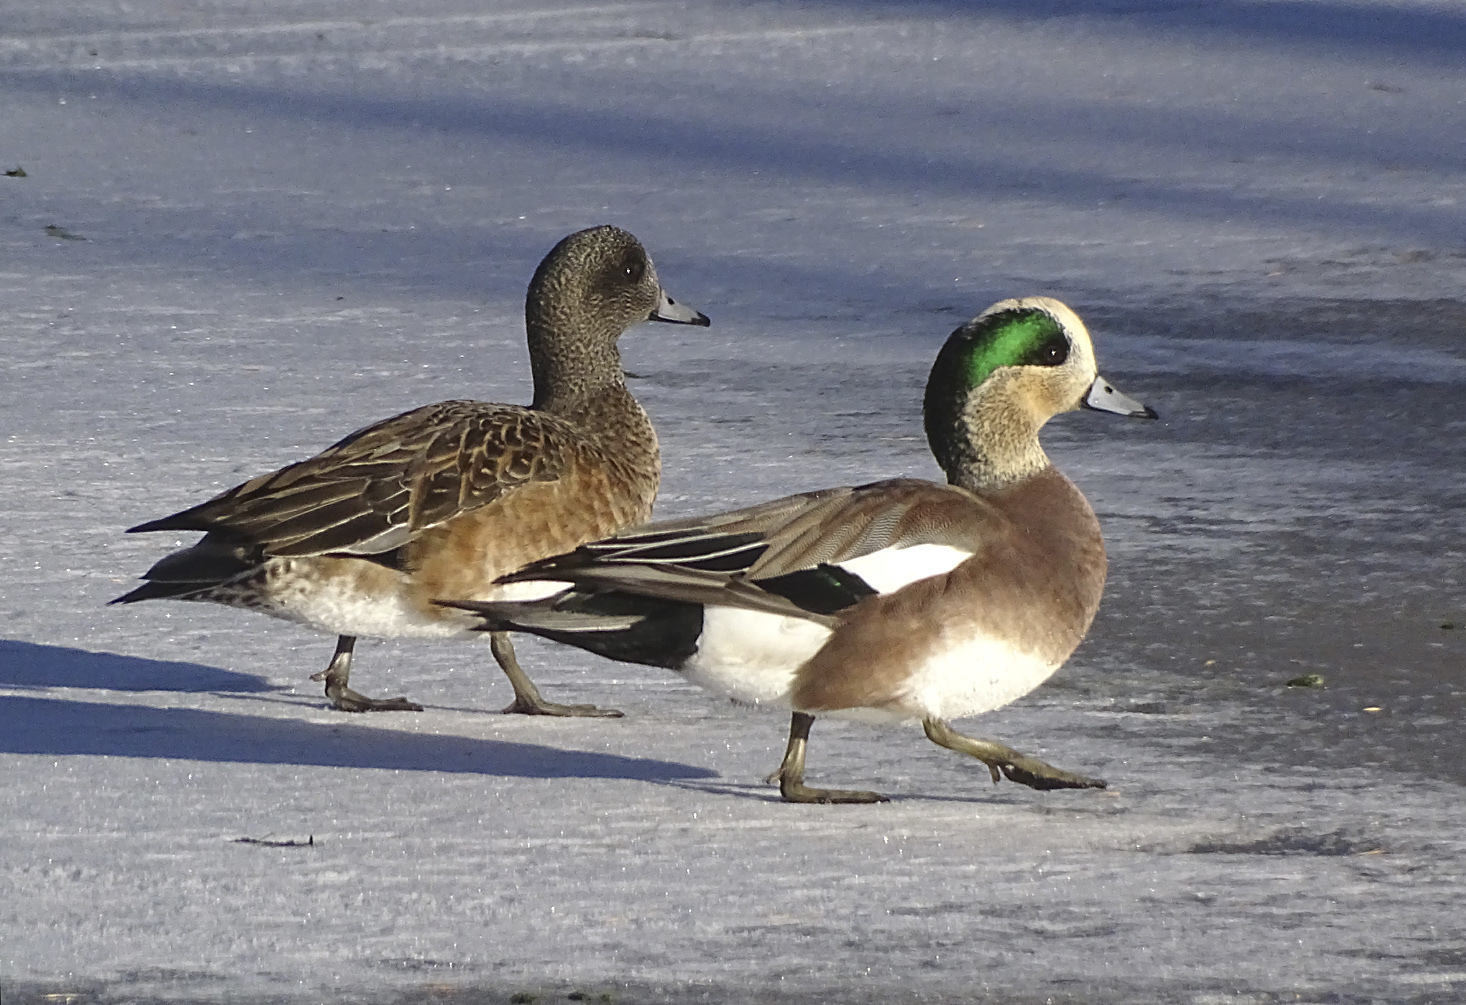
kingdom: Animalia
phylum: Chordata
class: Aves
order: Anseriformes
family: Anatidae
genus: Mareca
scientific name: Mareca americana
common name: American wigeon
